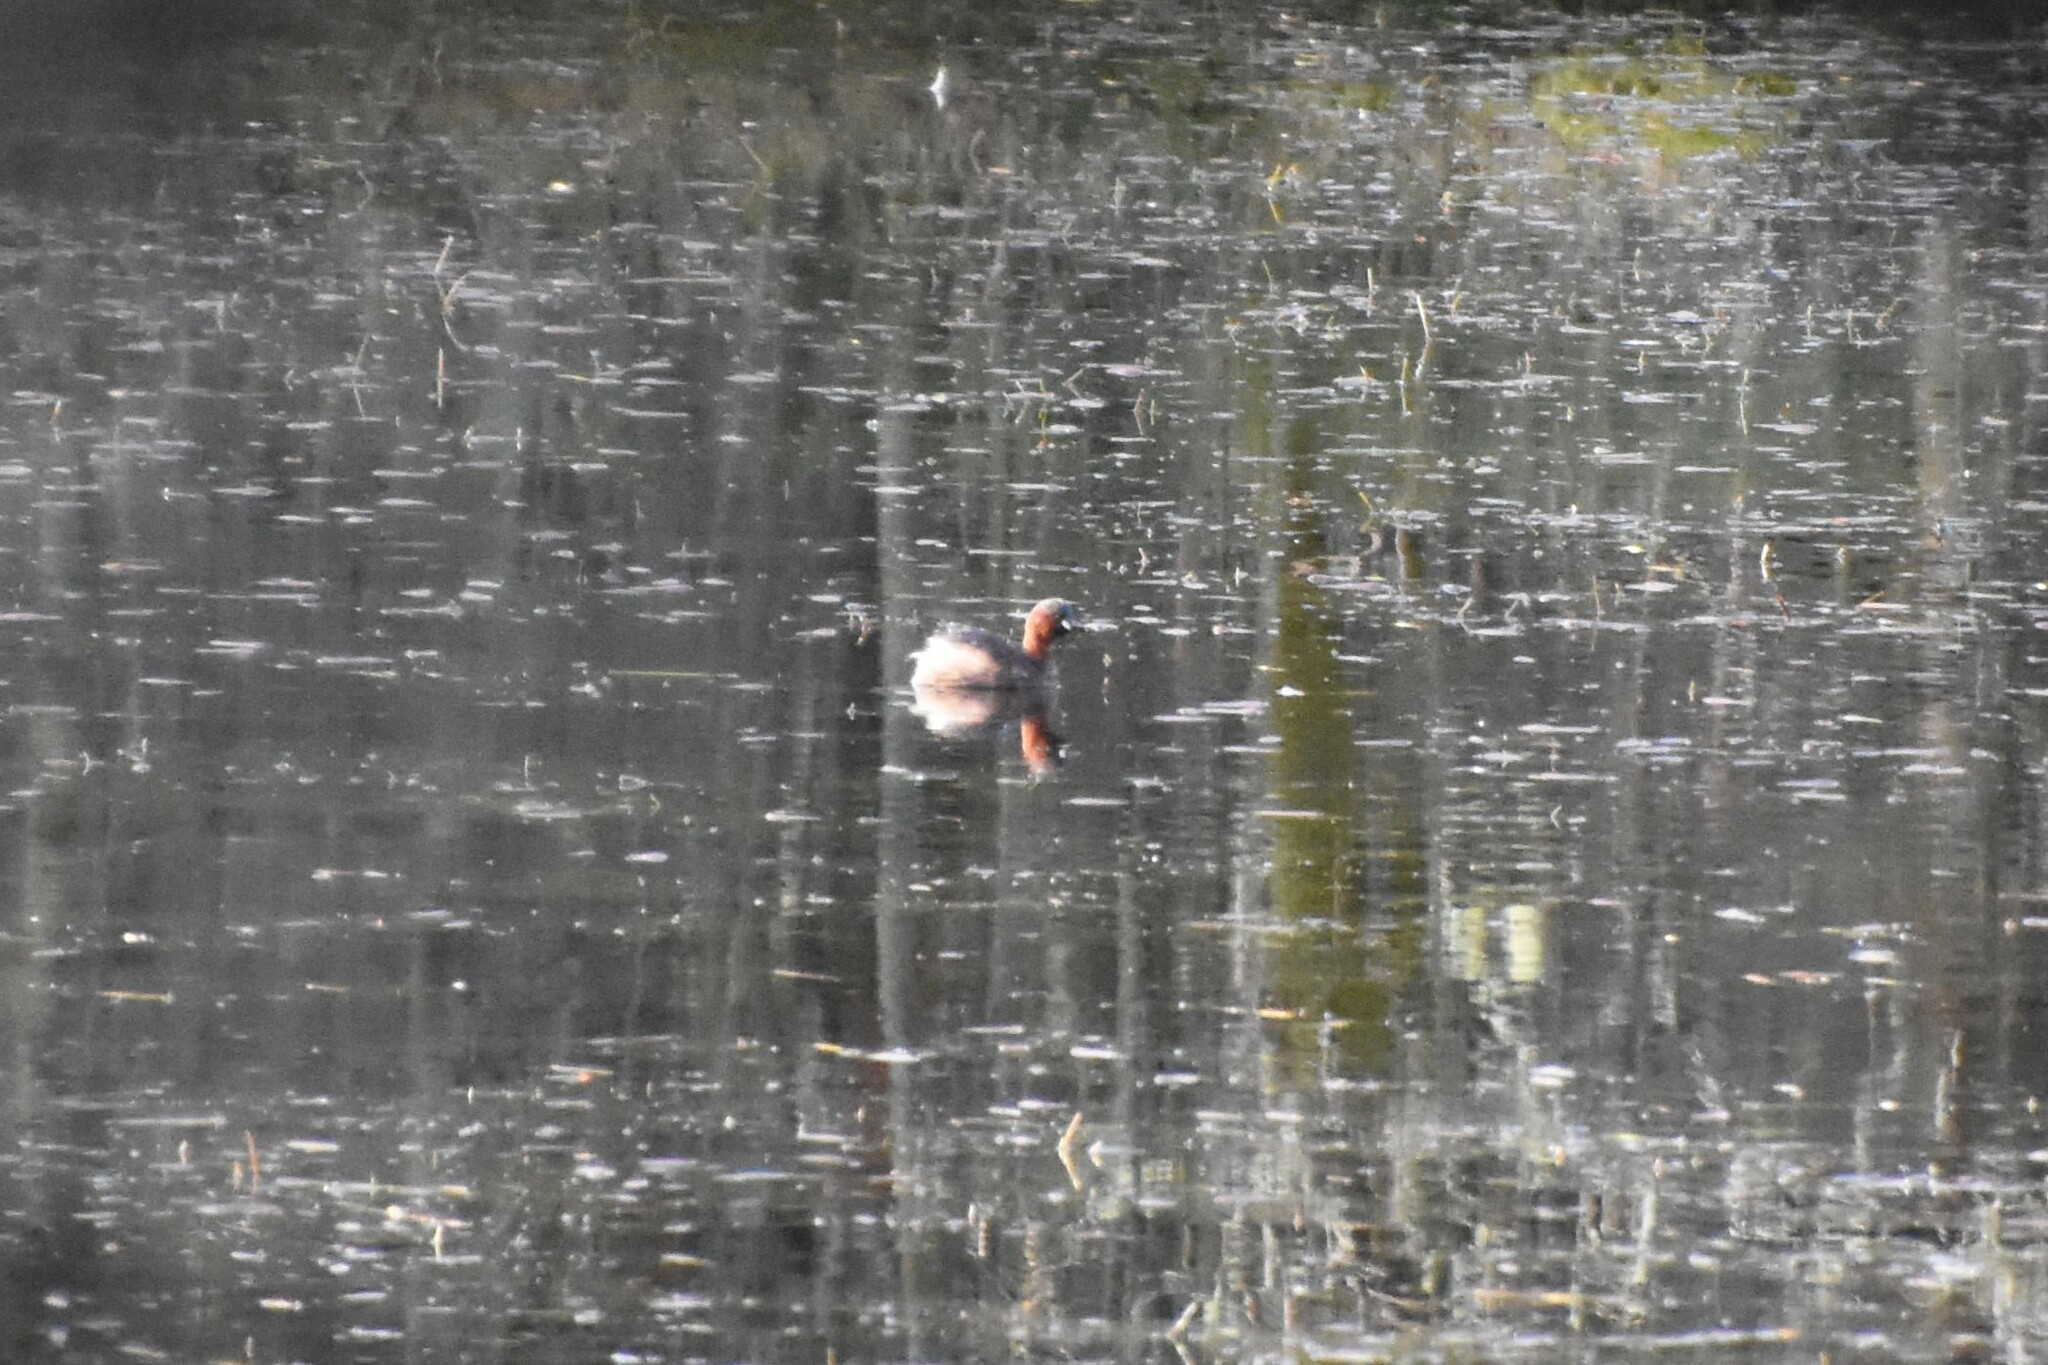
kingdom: Animalia
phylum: Chordata
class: Aves
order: Podicipediformes
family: Podicipedidae
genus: Tachybaptus
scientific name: Tachybaptus ruficollis
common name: Little grebe
